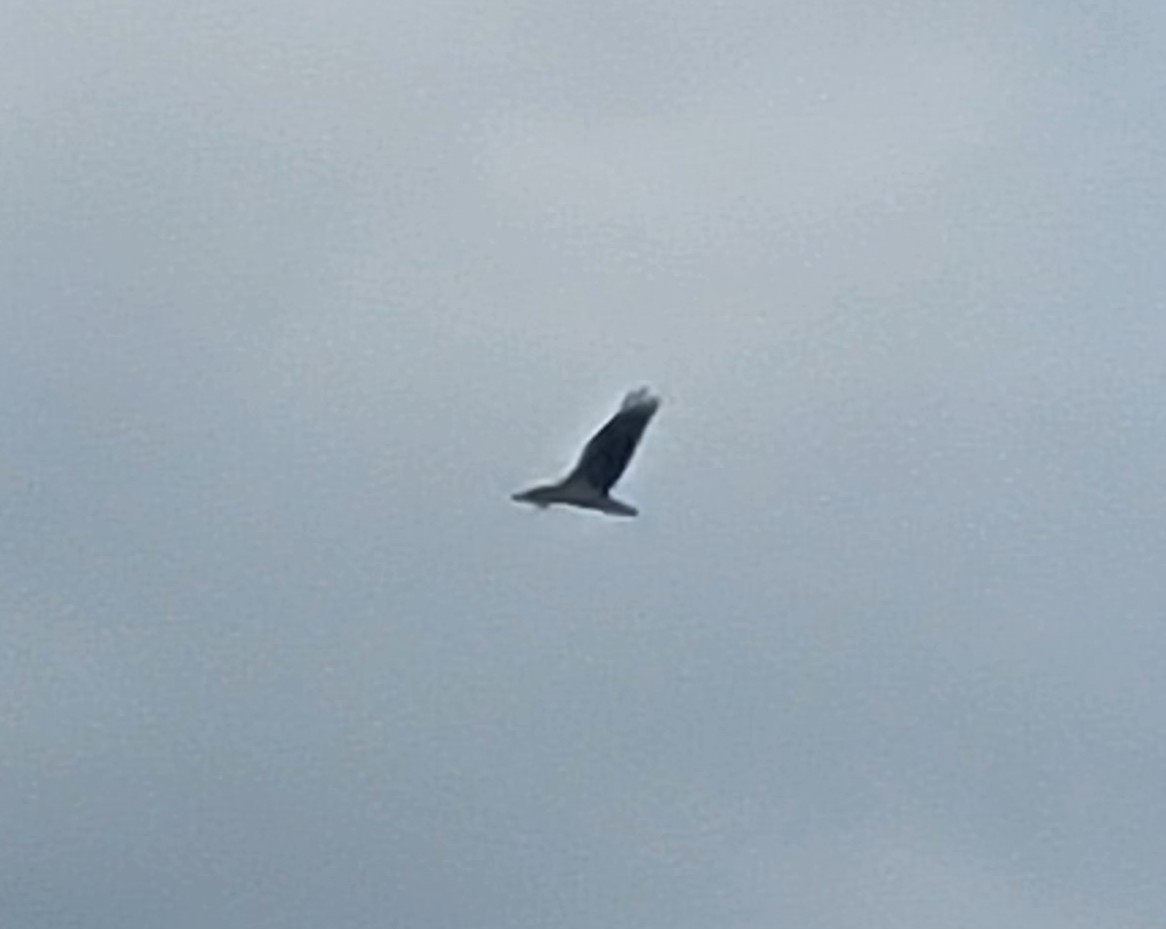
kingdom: Animalia
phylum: Chordata
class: Aves
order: Accipitriformes
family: Pandionidae
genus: Pandion
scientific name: Pandion haliaetus
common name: Osprey
